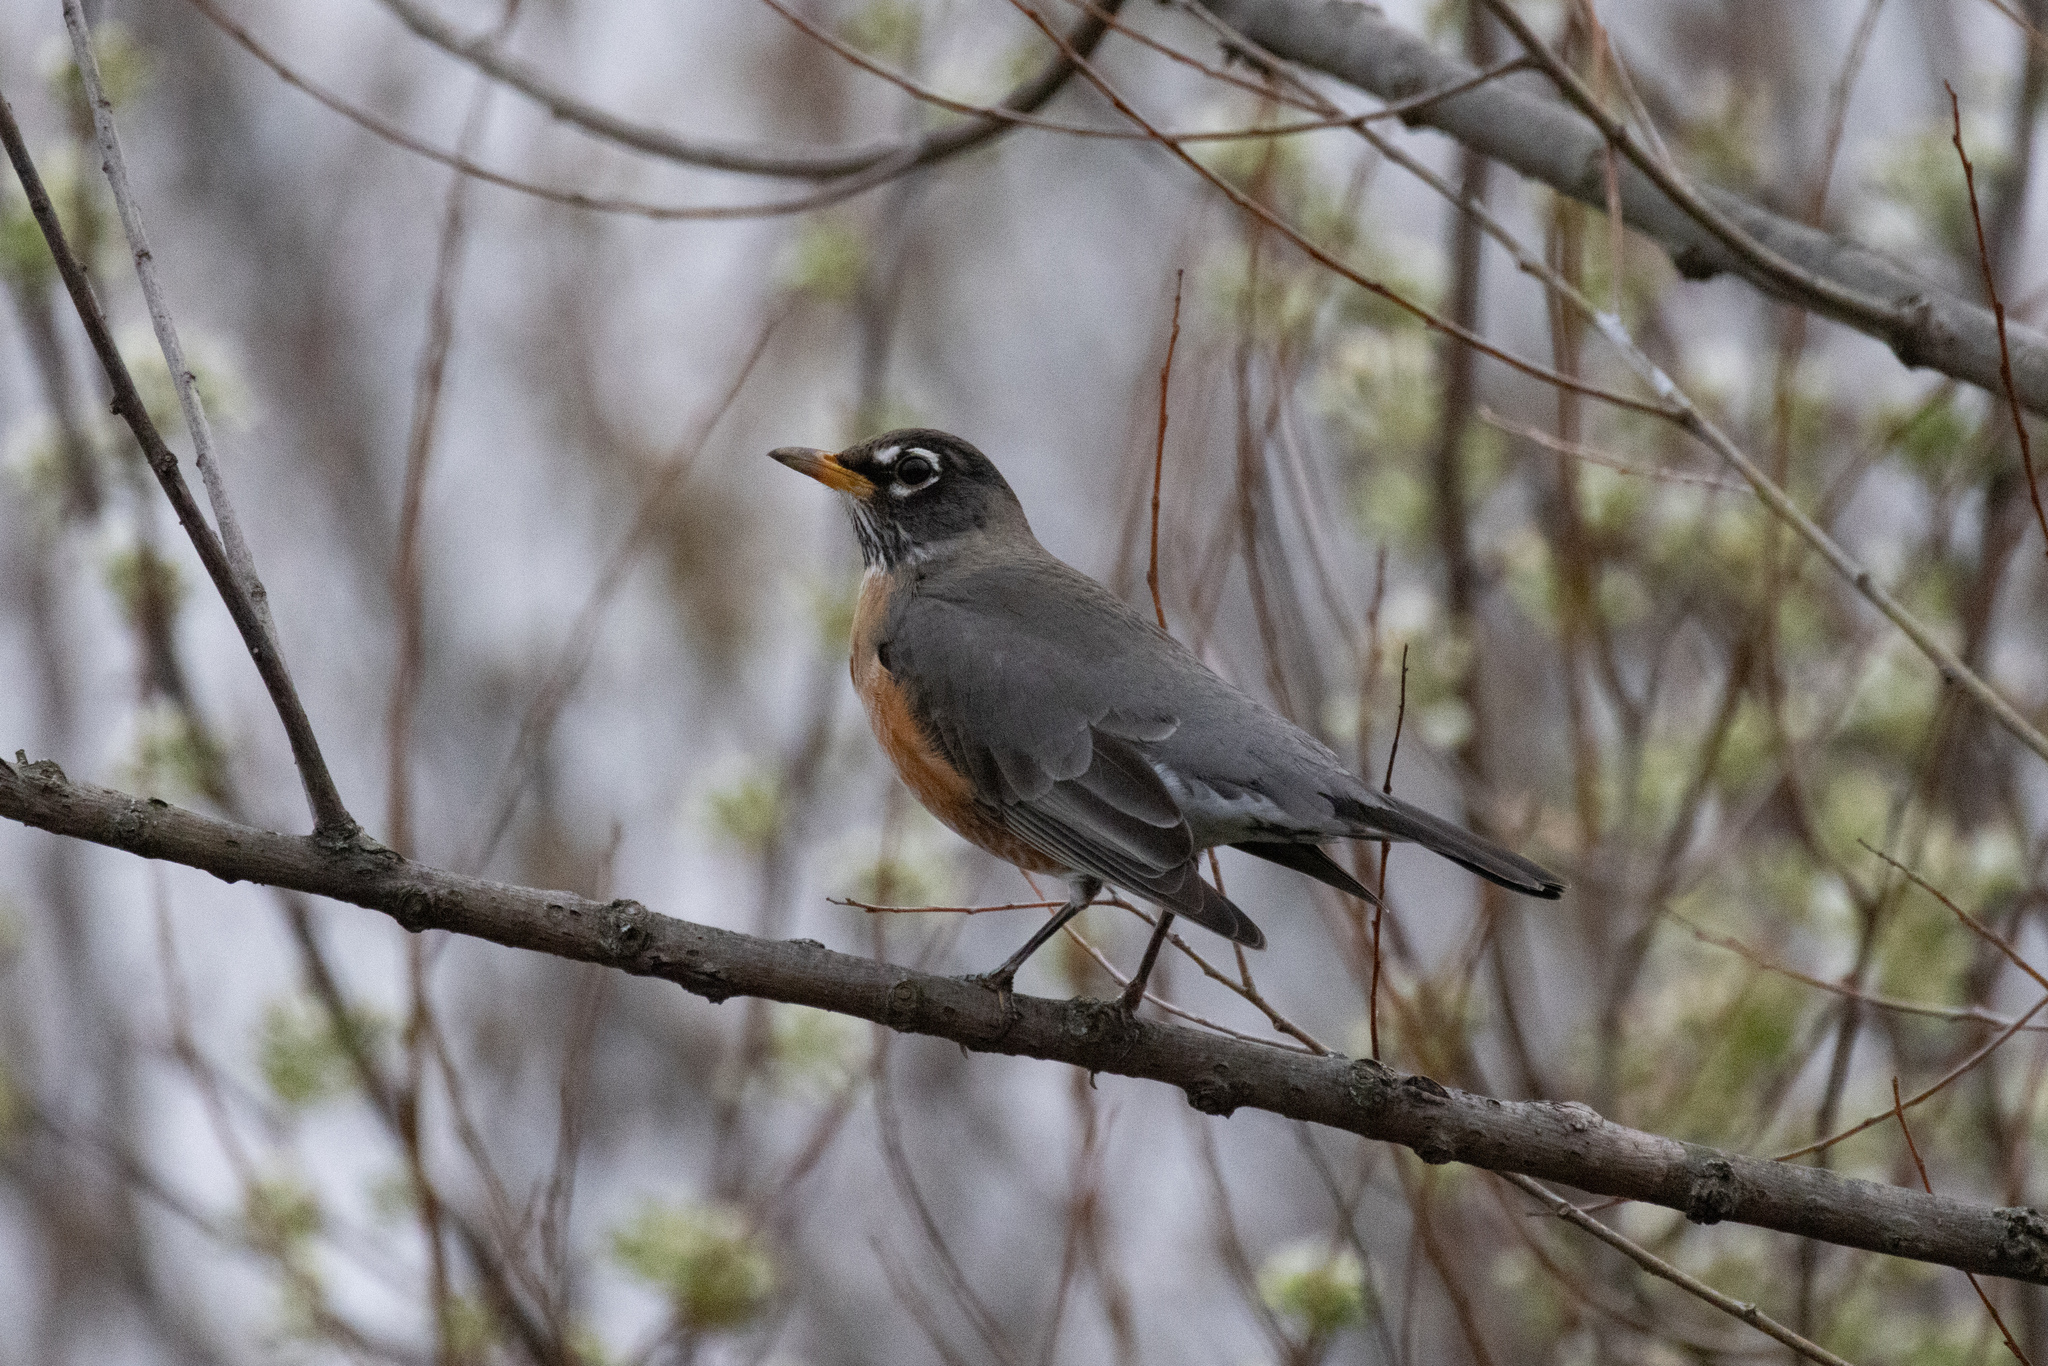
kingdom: Animalia
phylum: Chordata
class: Aves
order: Passeriformes
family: Turdidae
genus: Turdus
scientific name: Turdus migratorius
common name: American robin
